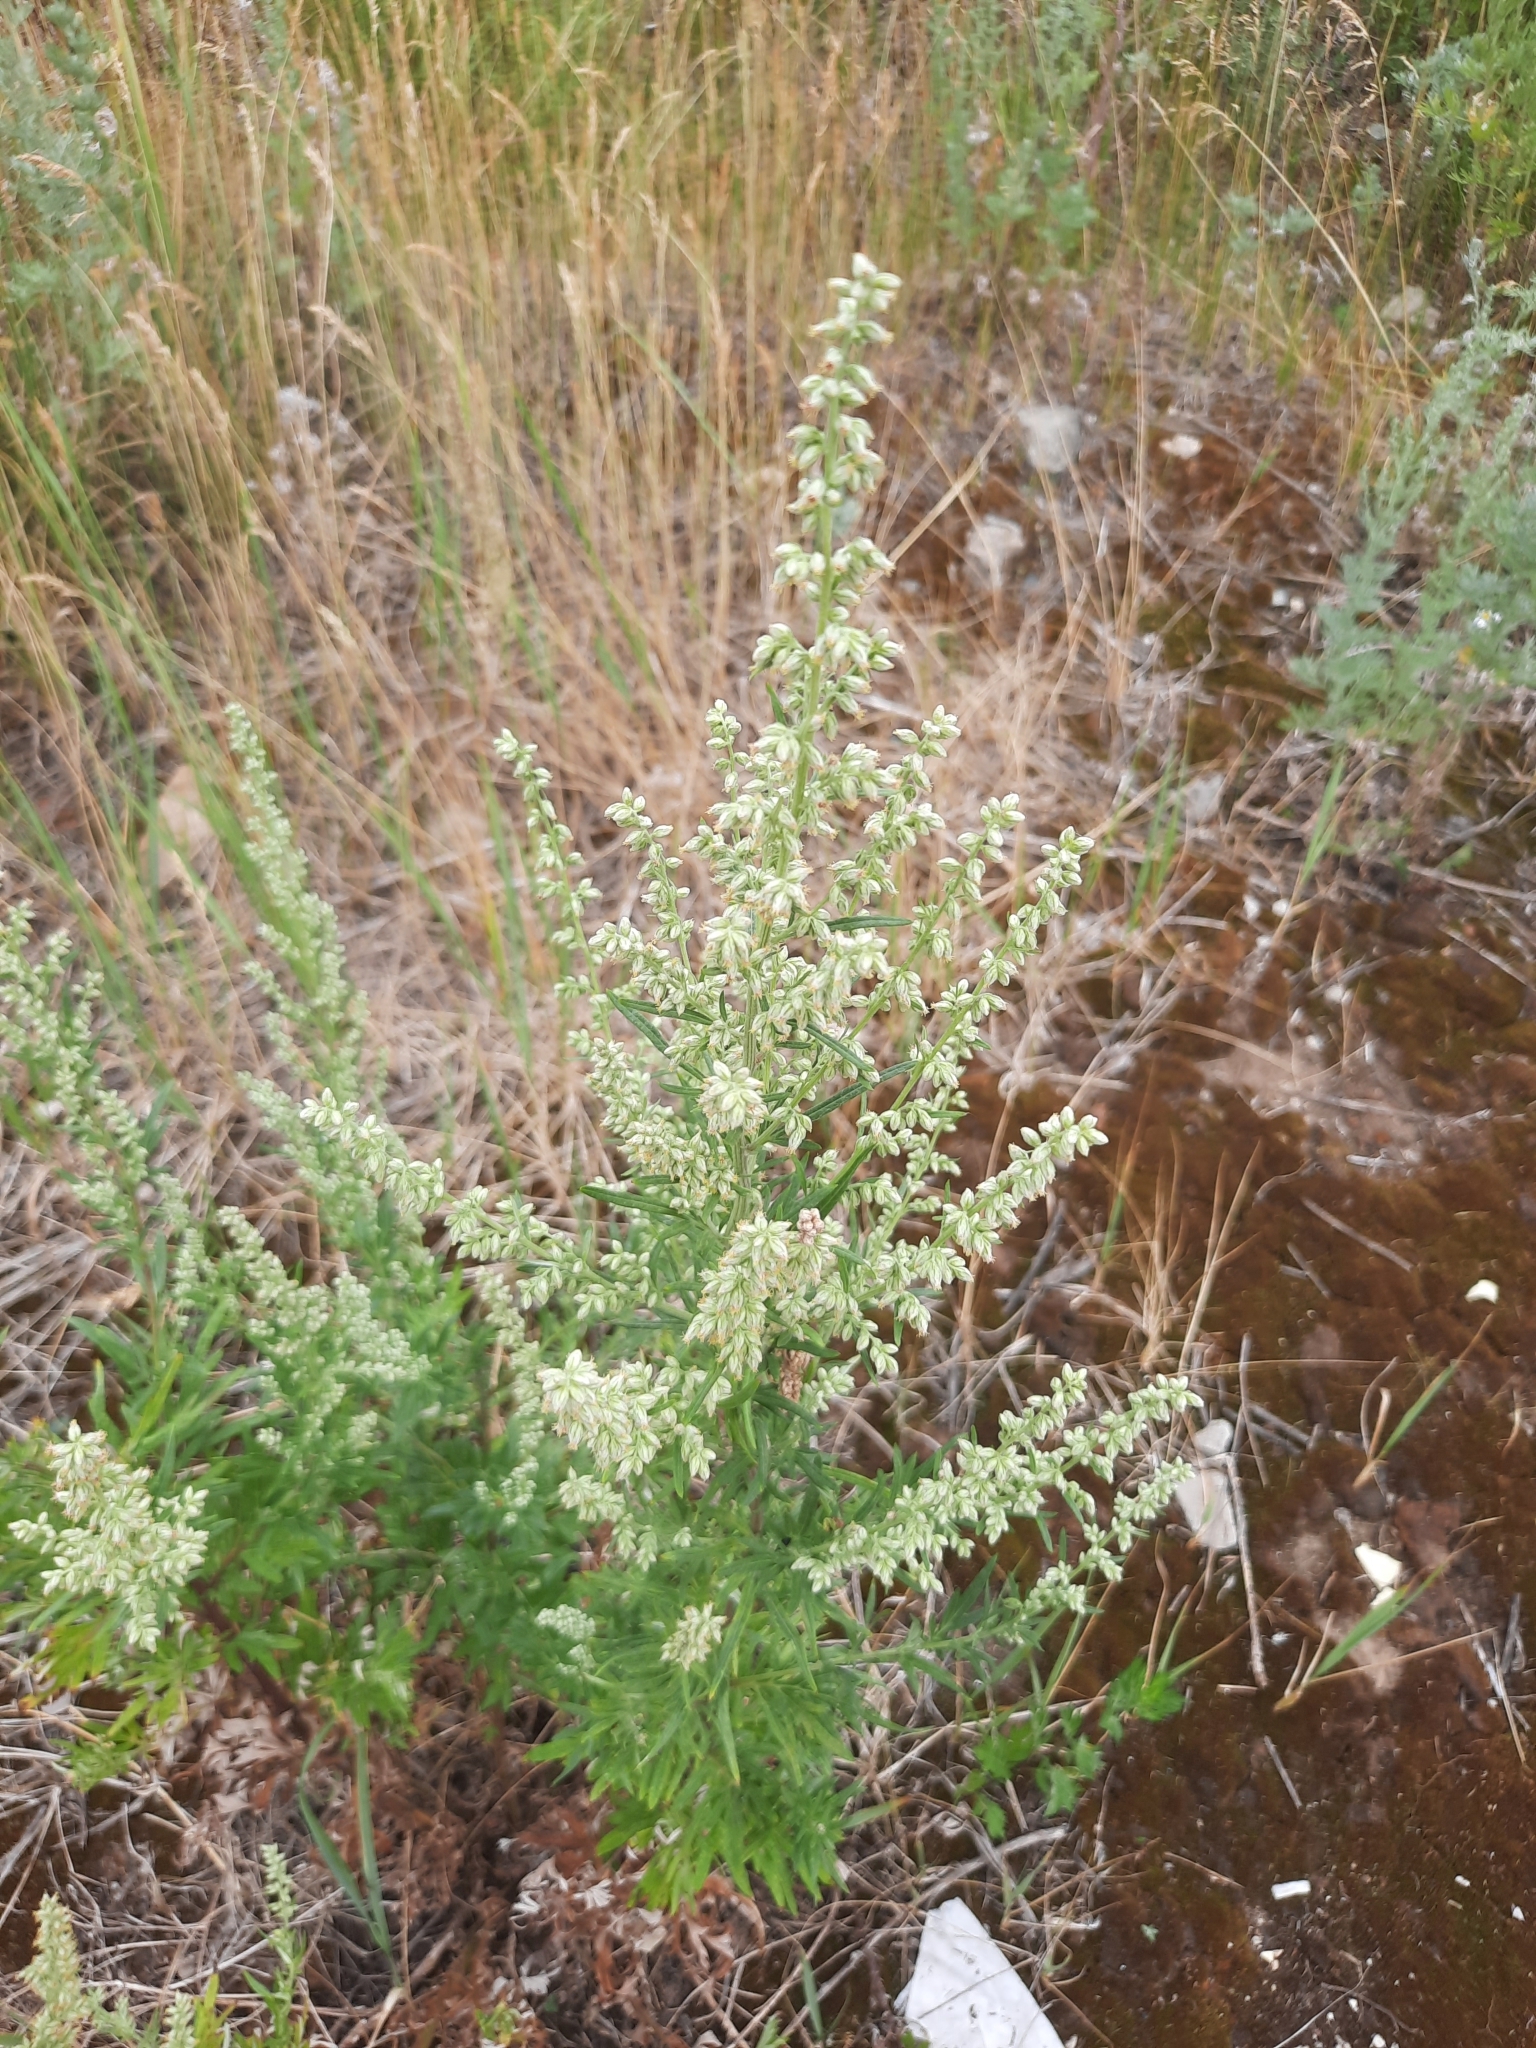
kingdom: Plantae
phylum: Tracheophyta
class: Magnoliopsida
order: Asterales
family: Asteraceae
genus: Artemisia
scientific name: Artemisia vulgaris
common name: Mugwort
